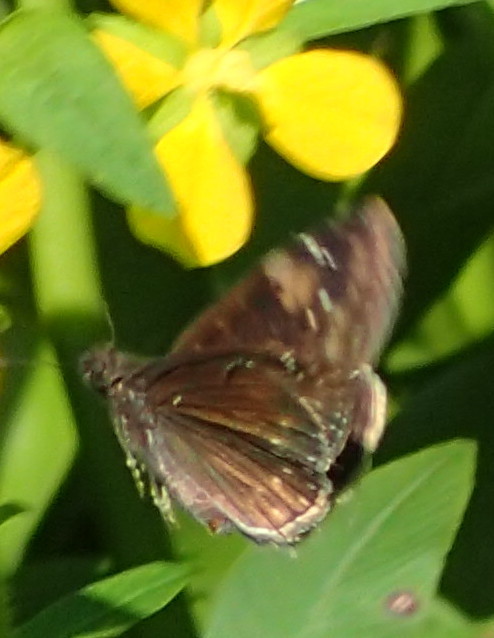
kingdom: Animalia
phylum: Arthropoda
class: Insecta
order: Lepidoptera
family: Hesperiidae
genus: Erynnis
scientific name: Erynnis zarucco
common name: Zarucco duskywing
